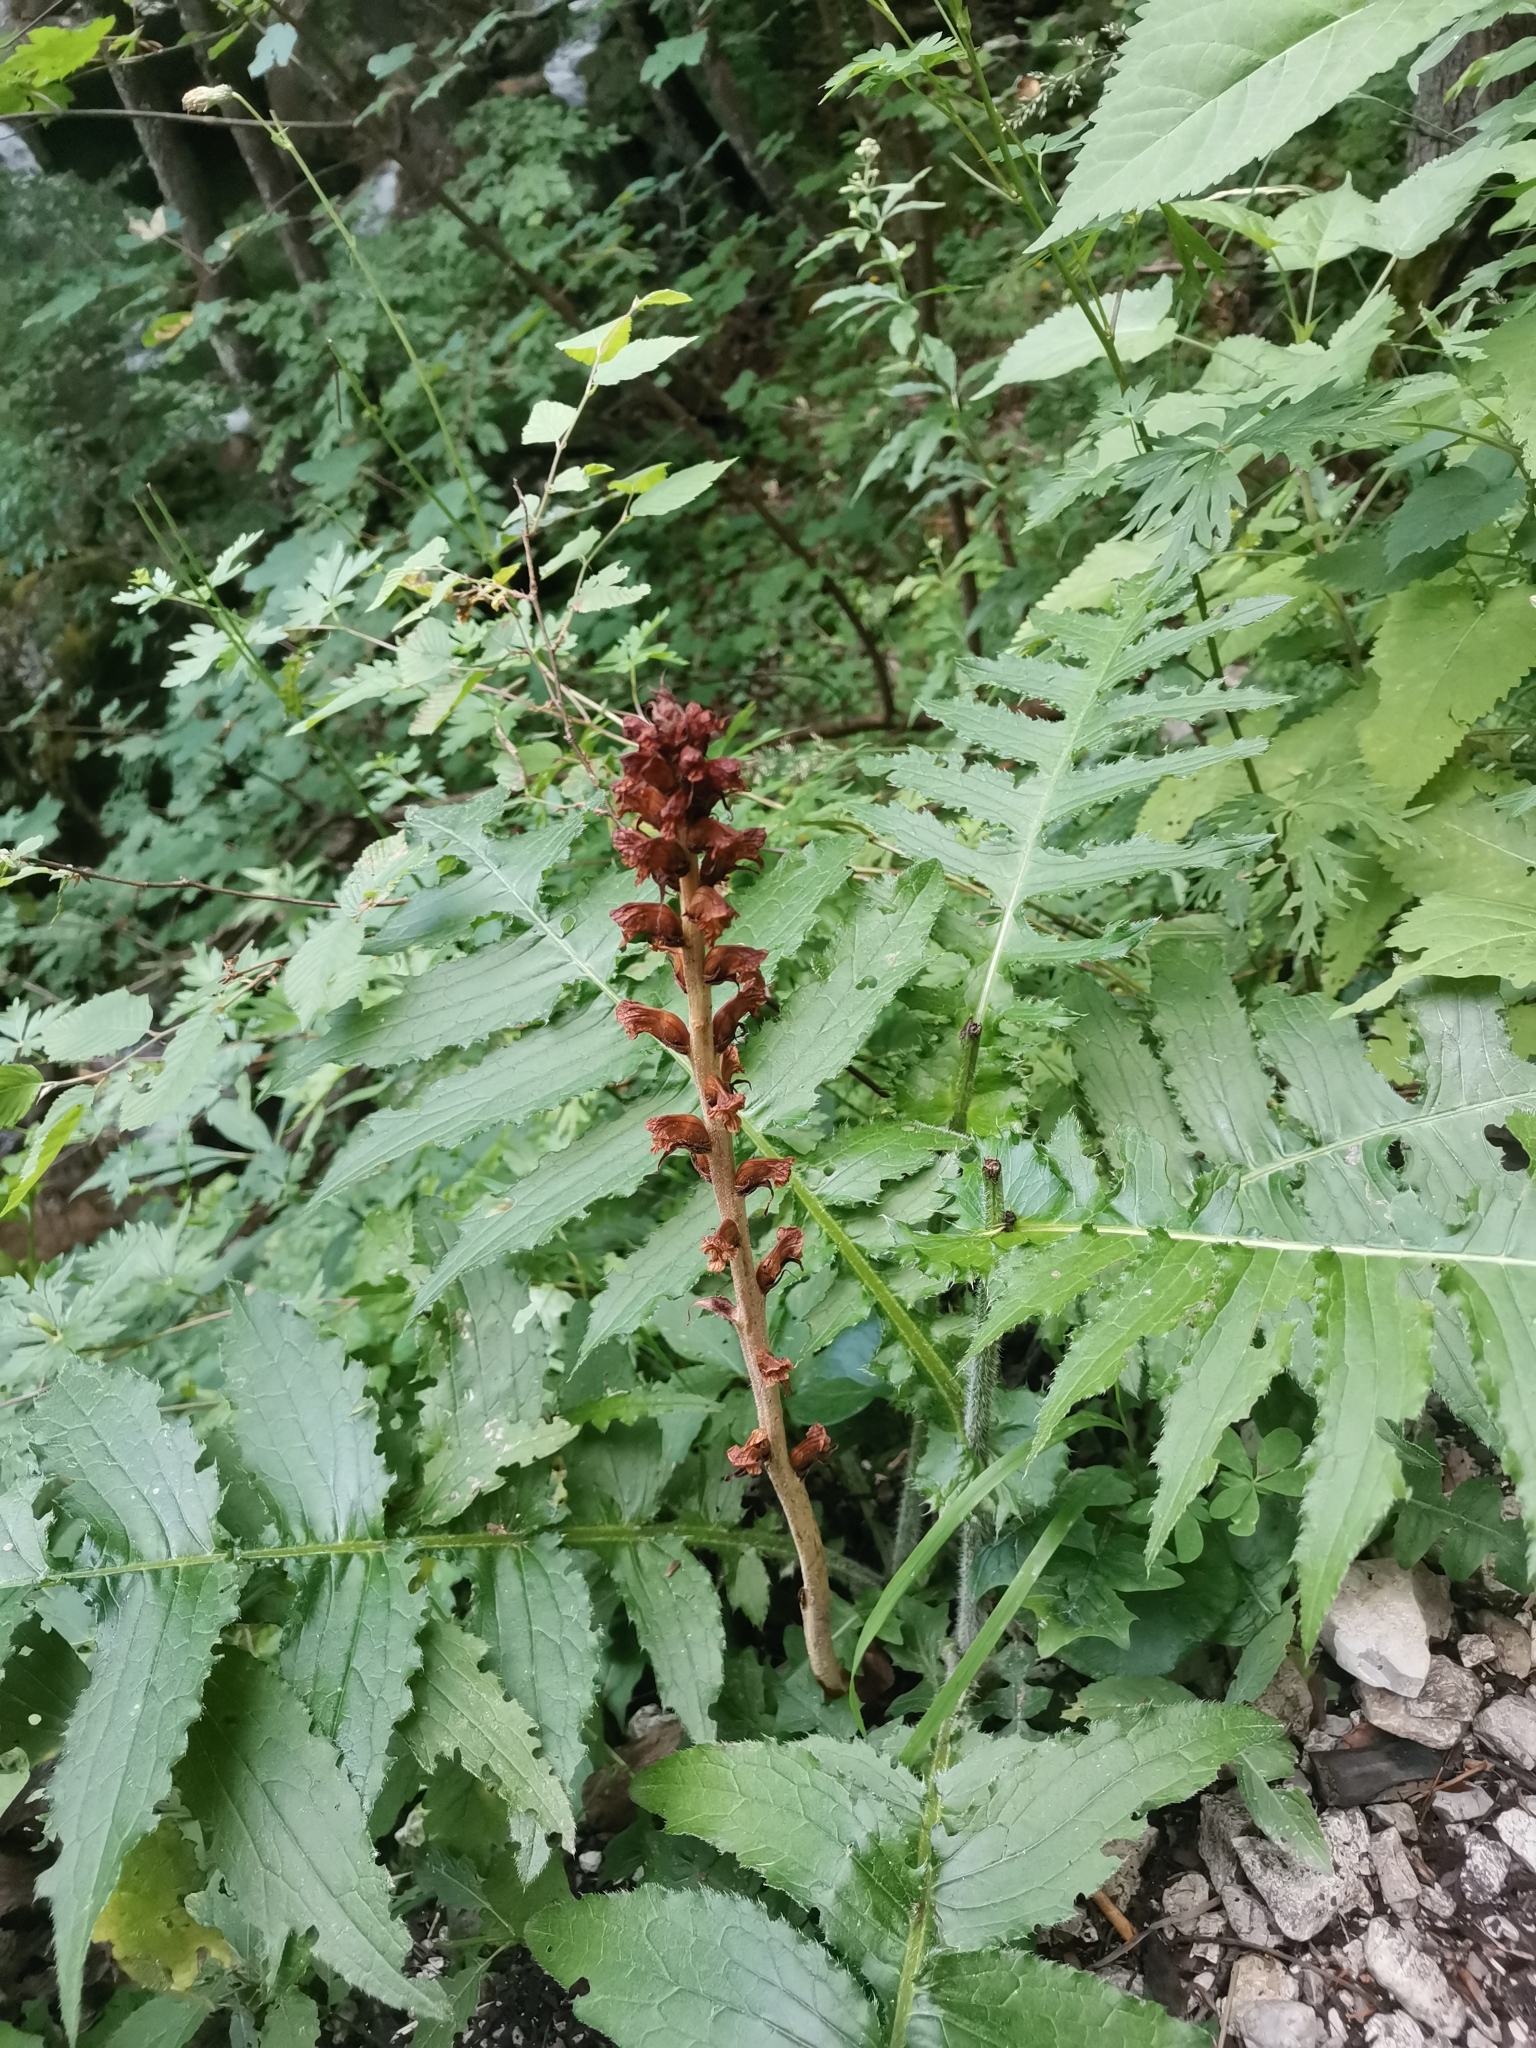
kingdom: Plantae
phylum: Tracheophyta
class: Magnoliopsida
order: Lamiales
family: Orobanchaceae
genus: Orobanche
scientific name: Orobanche reticulata
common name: Thistle broomrape
